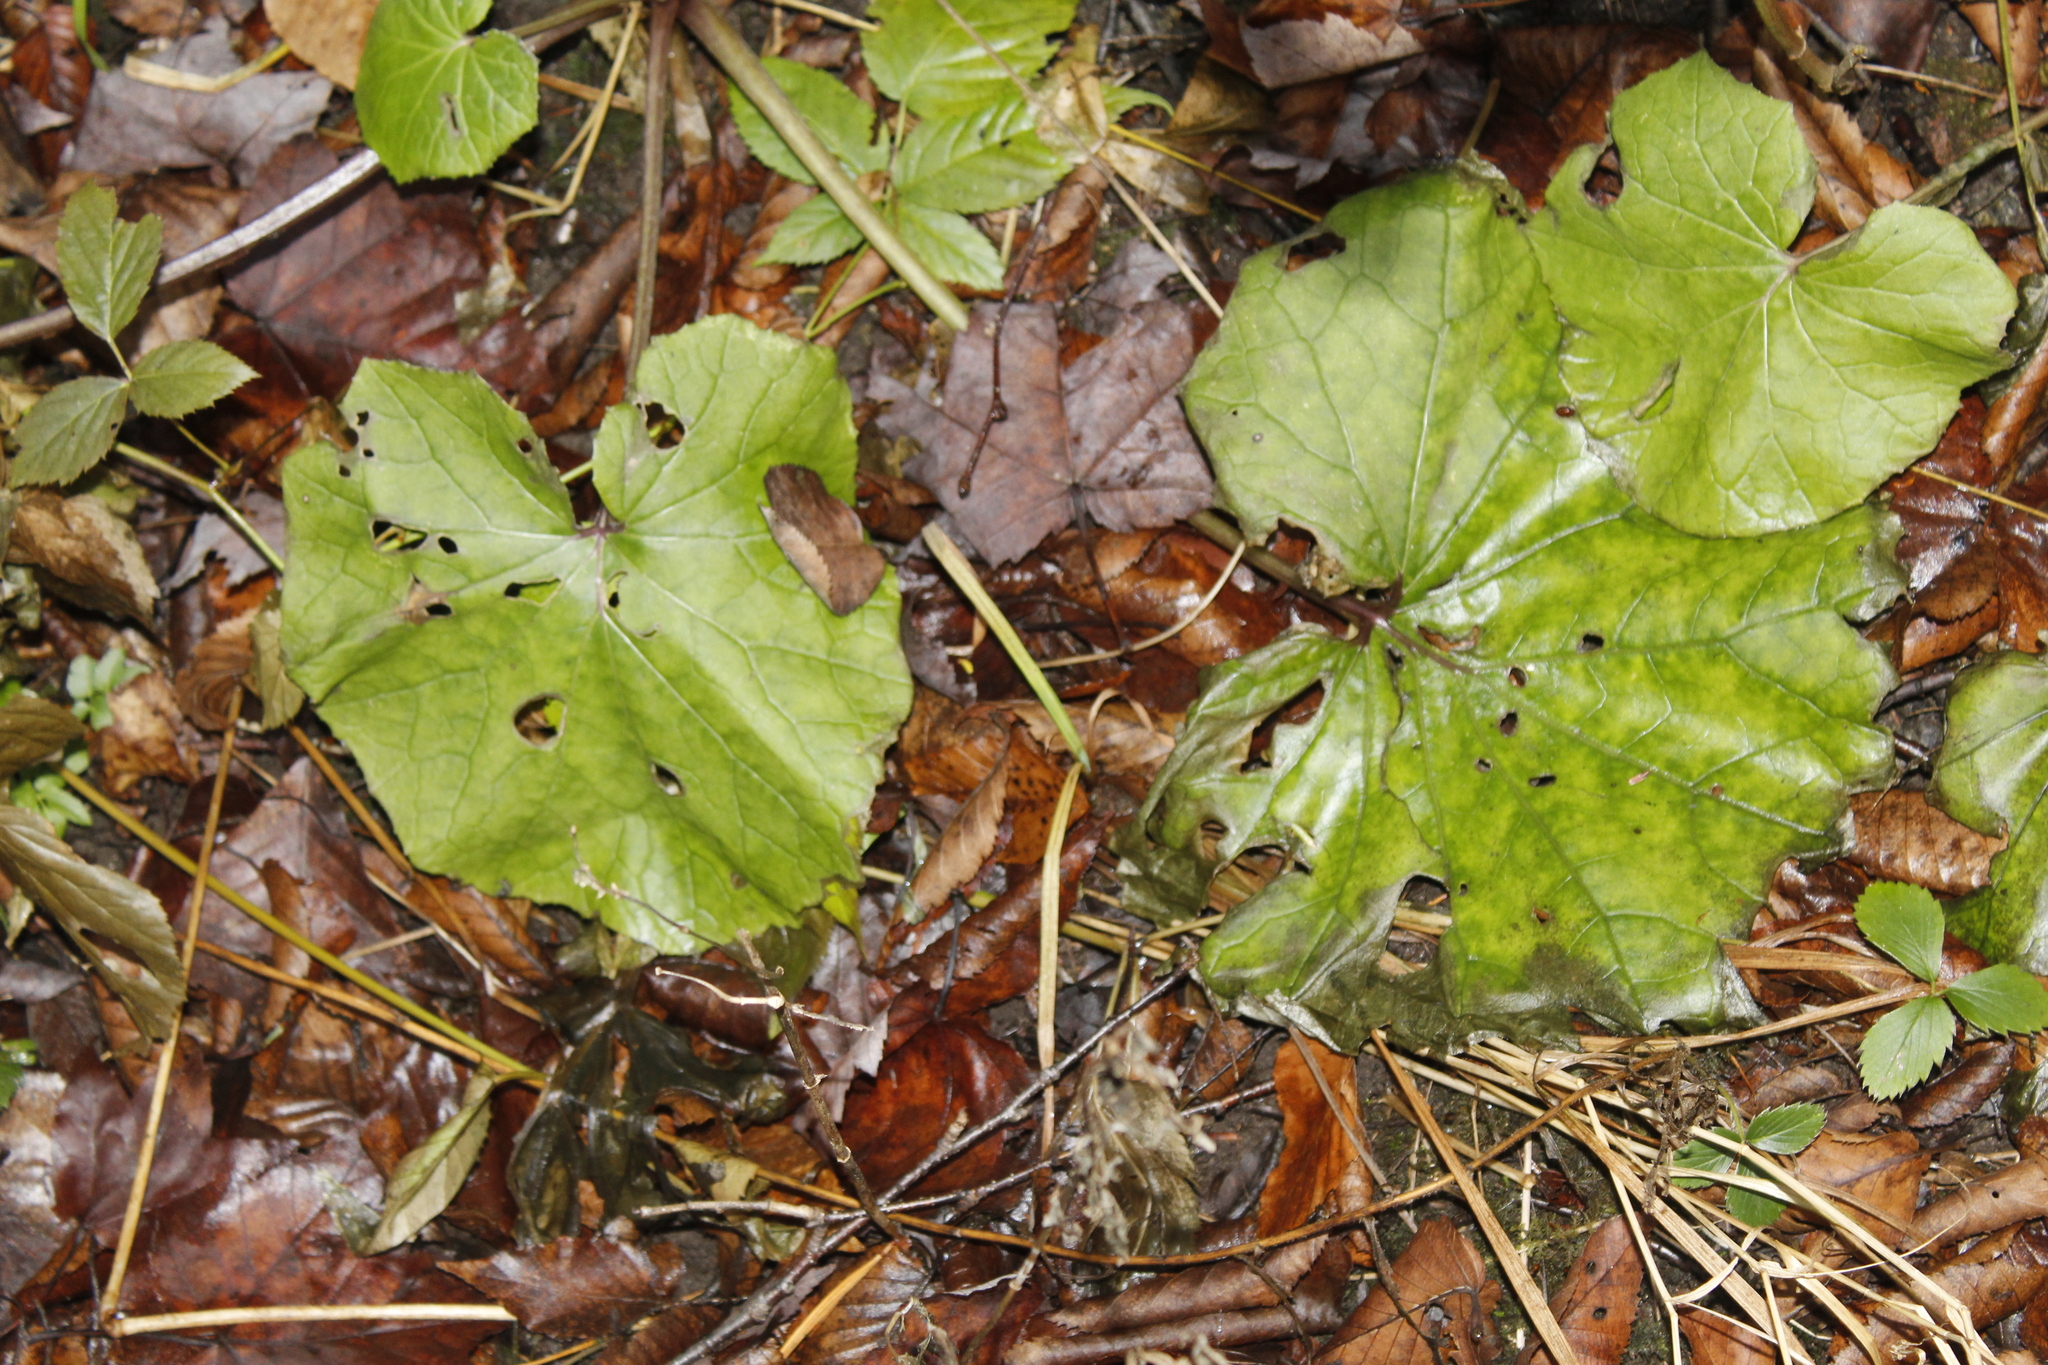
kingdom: Plantae
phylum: Tracheophyta
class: Magnoliopsida
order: Asterales
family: Asteraceae
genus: Tussilago
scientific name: Tussilago farfara
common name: Coltsfoot
